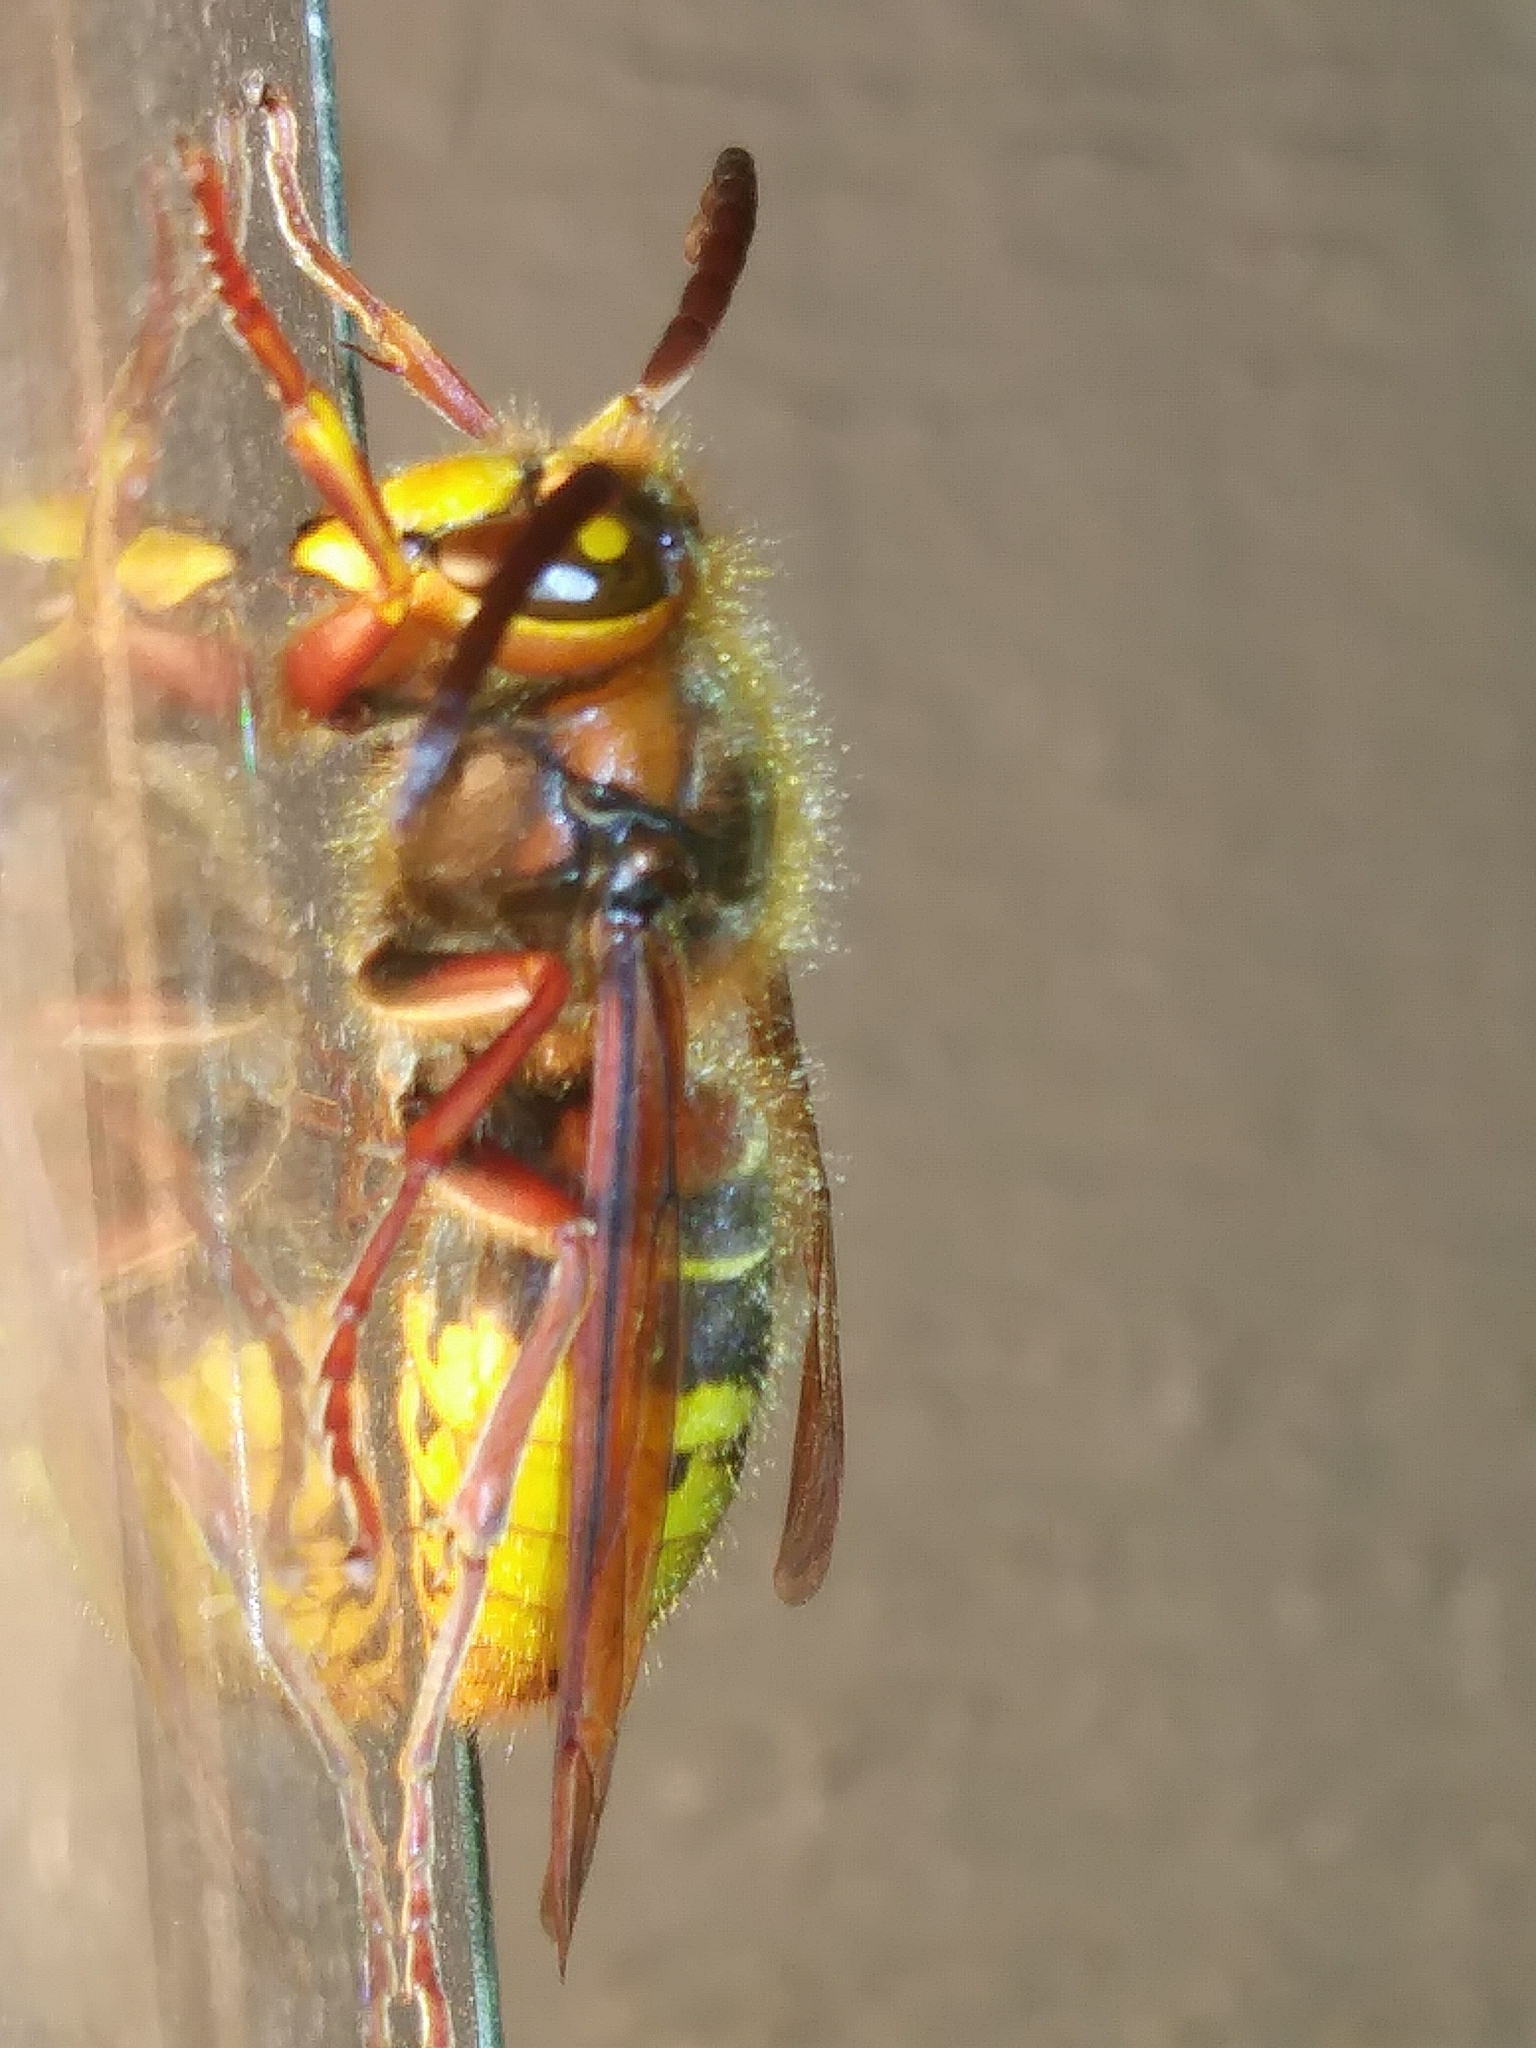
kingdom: Animalia
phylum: Arthropoda
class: Insecta
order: Hymenoptera
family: Vespidae
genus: Vespa
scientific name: Vespa crabro
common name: Hornet
